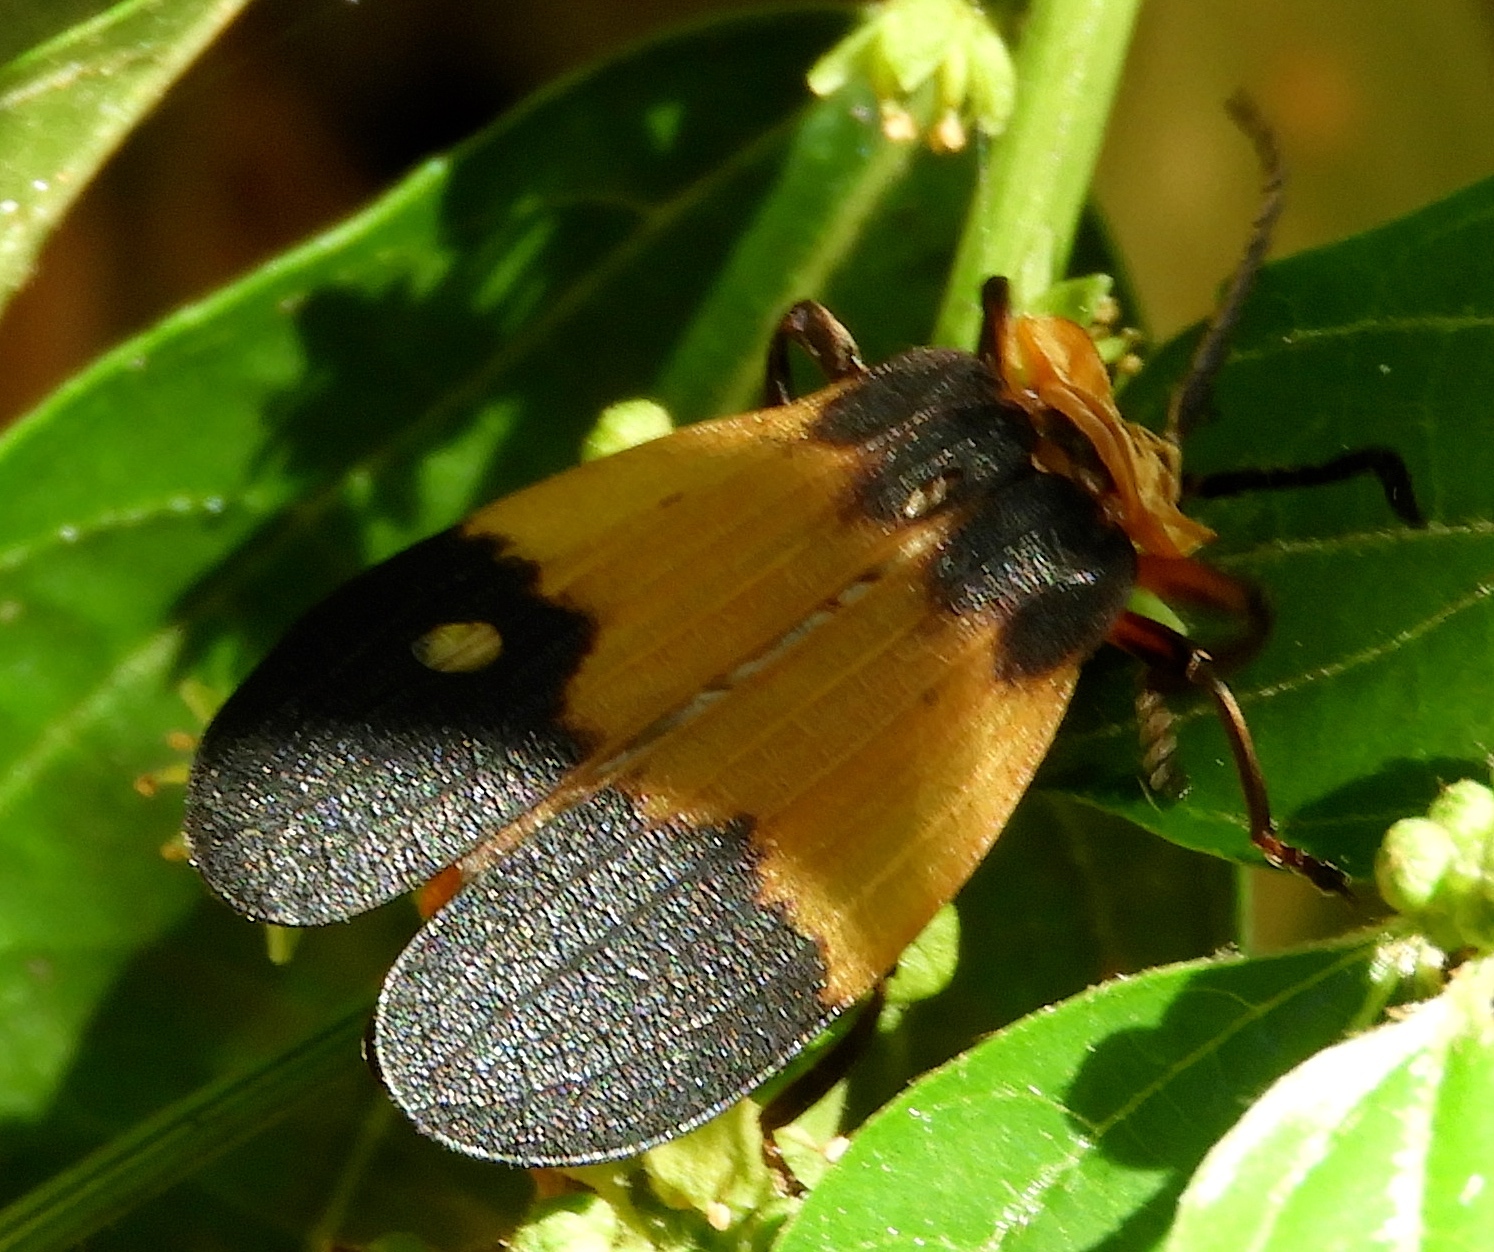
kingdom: Animalia
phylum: Arthropoda
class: Insecta
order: Coleoptera
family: Lycidae
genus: Lycus
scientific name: Lycus
